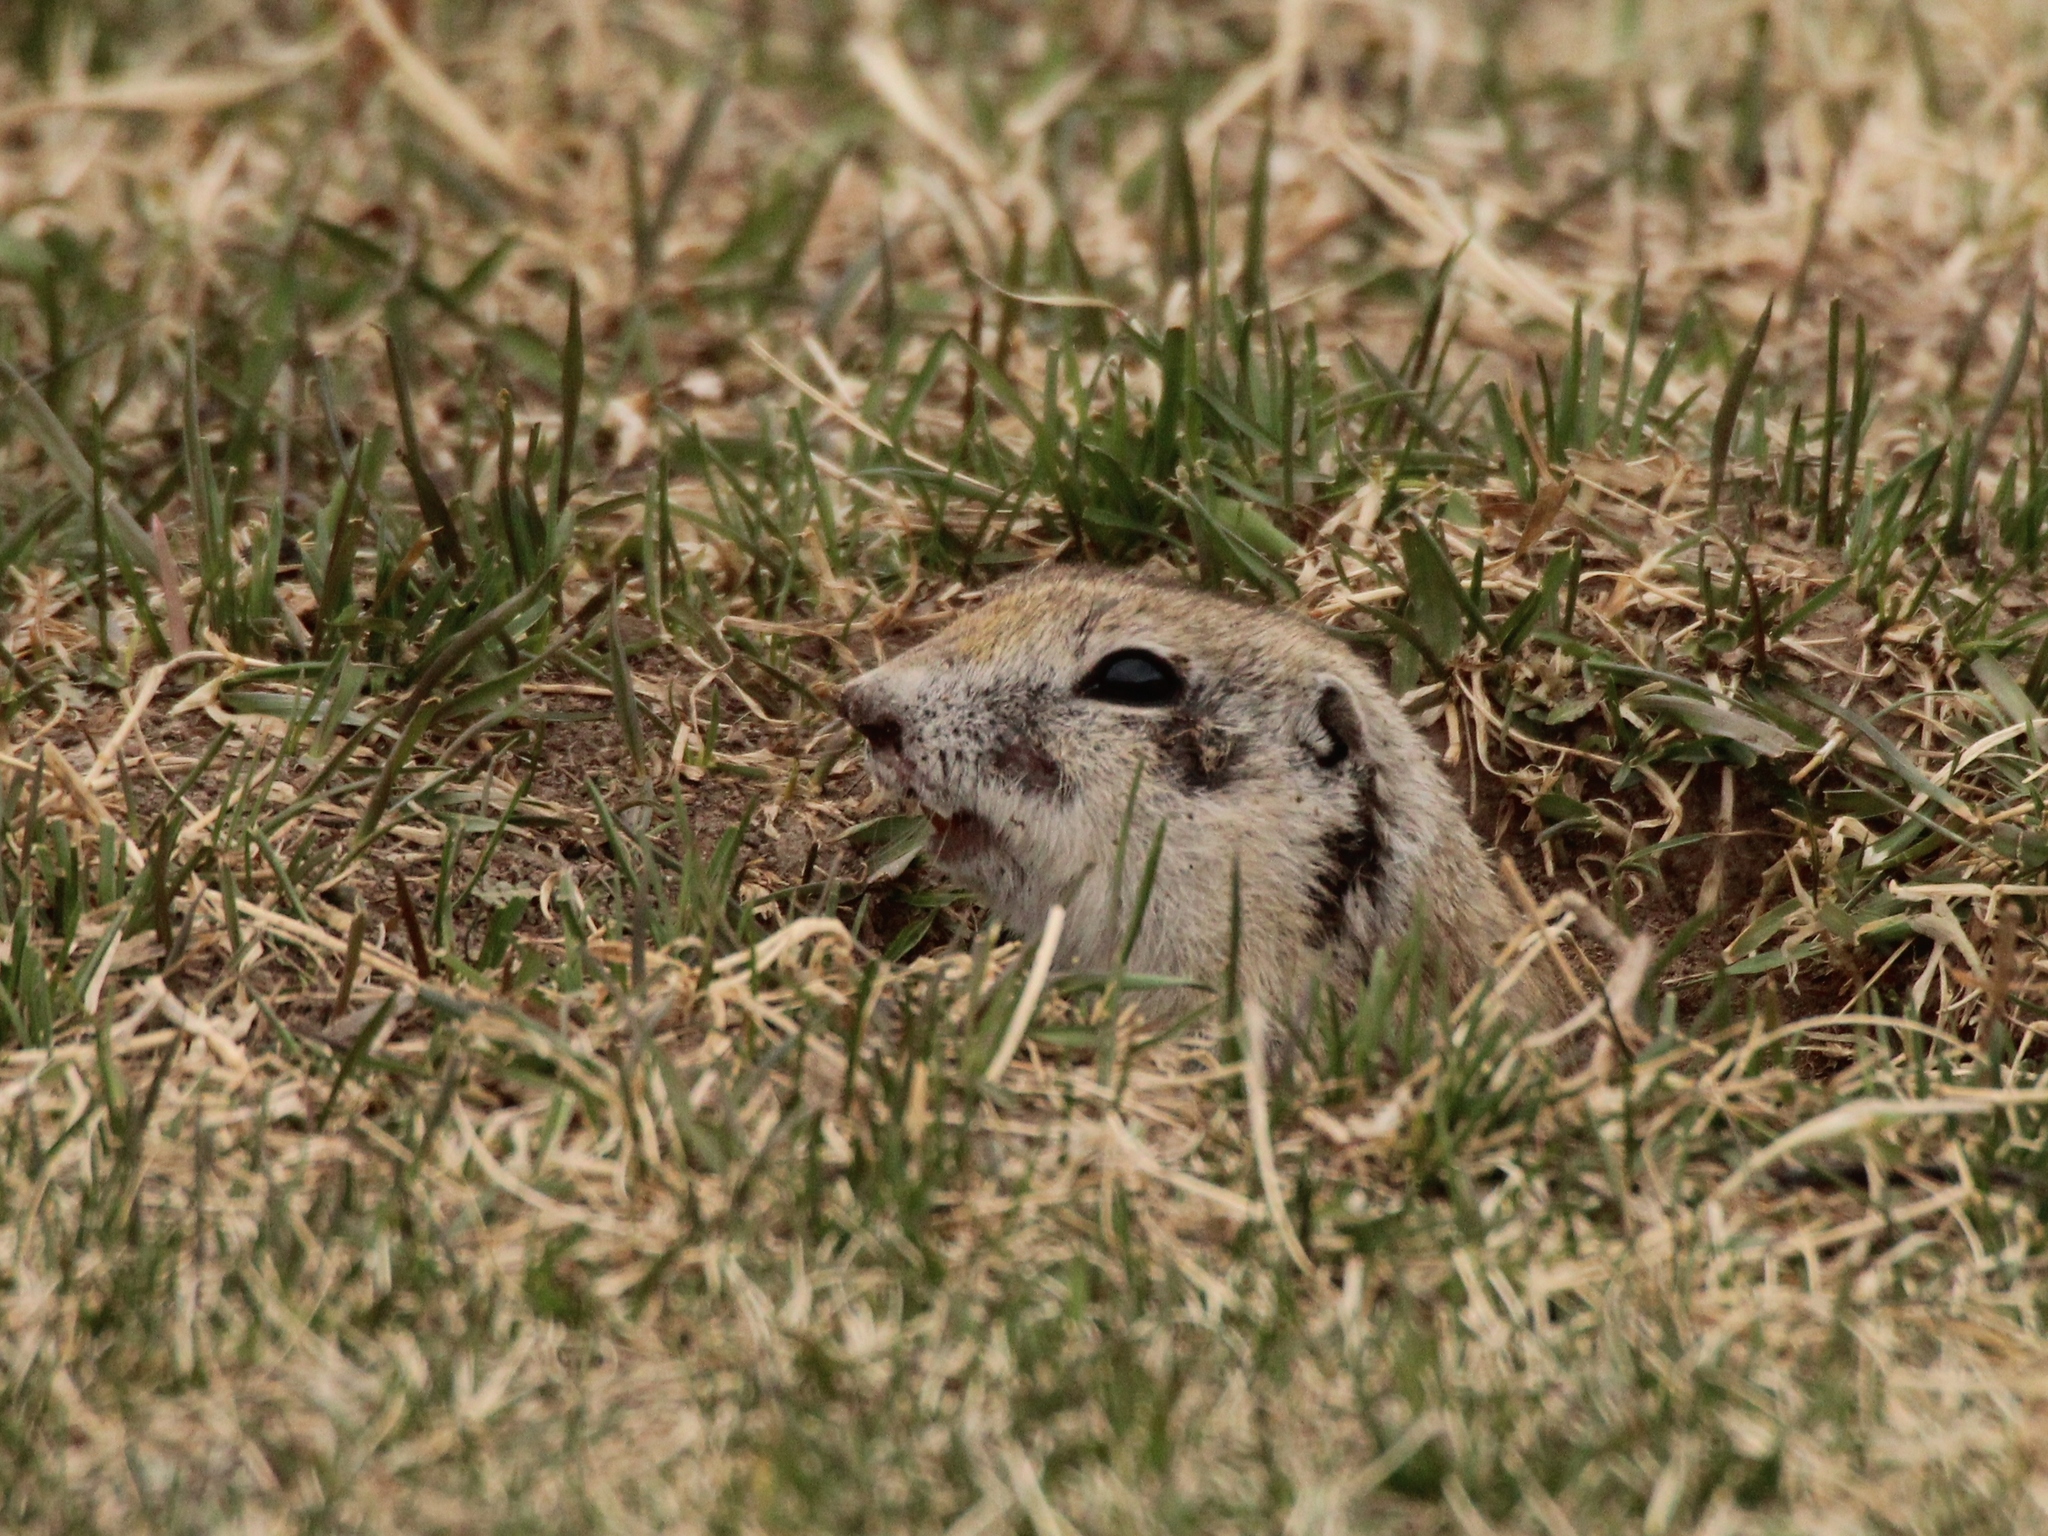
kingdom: Animalia
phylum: Chordata
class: Mammalia
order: Rodentia
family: Sciuridae
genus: Urocitellus
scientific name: Urocitellus undulatus
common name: Long-tailed ground squirrel
